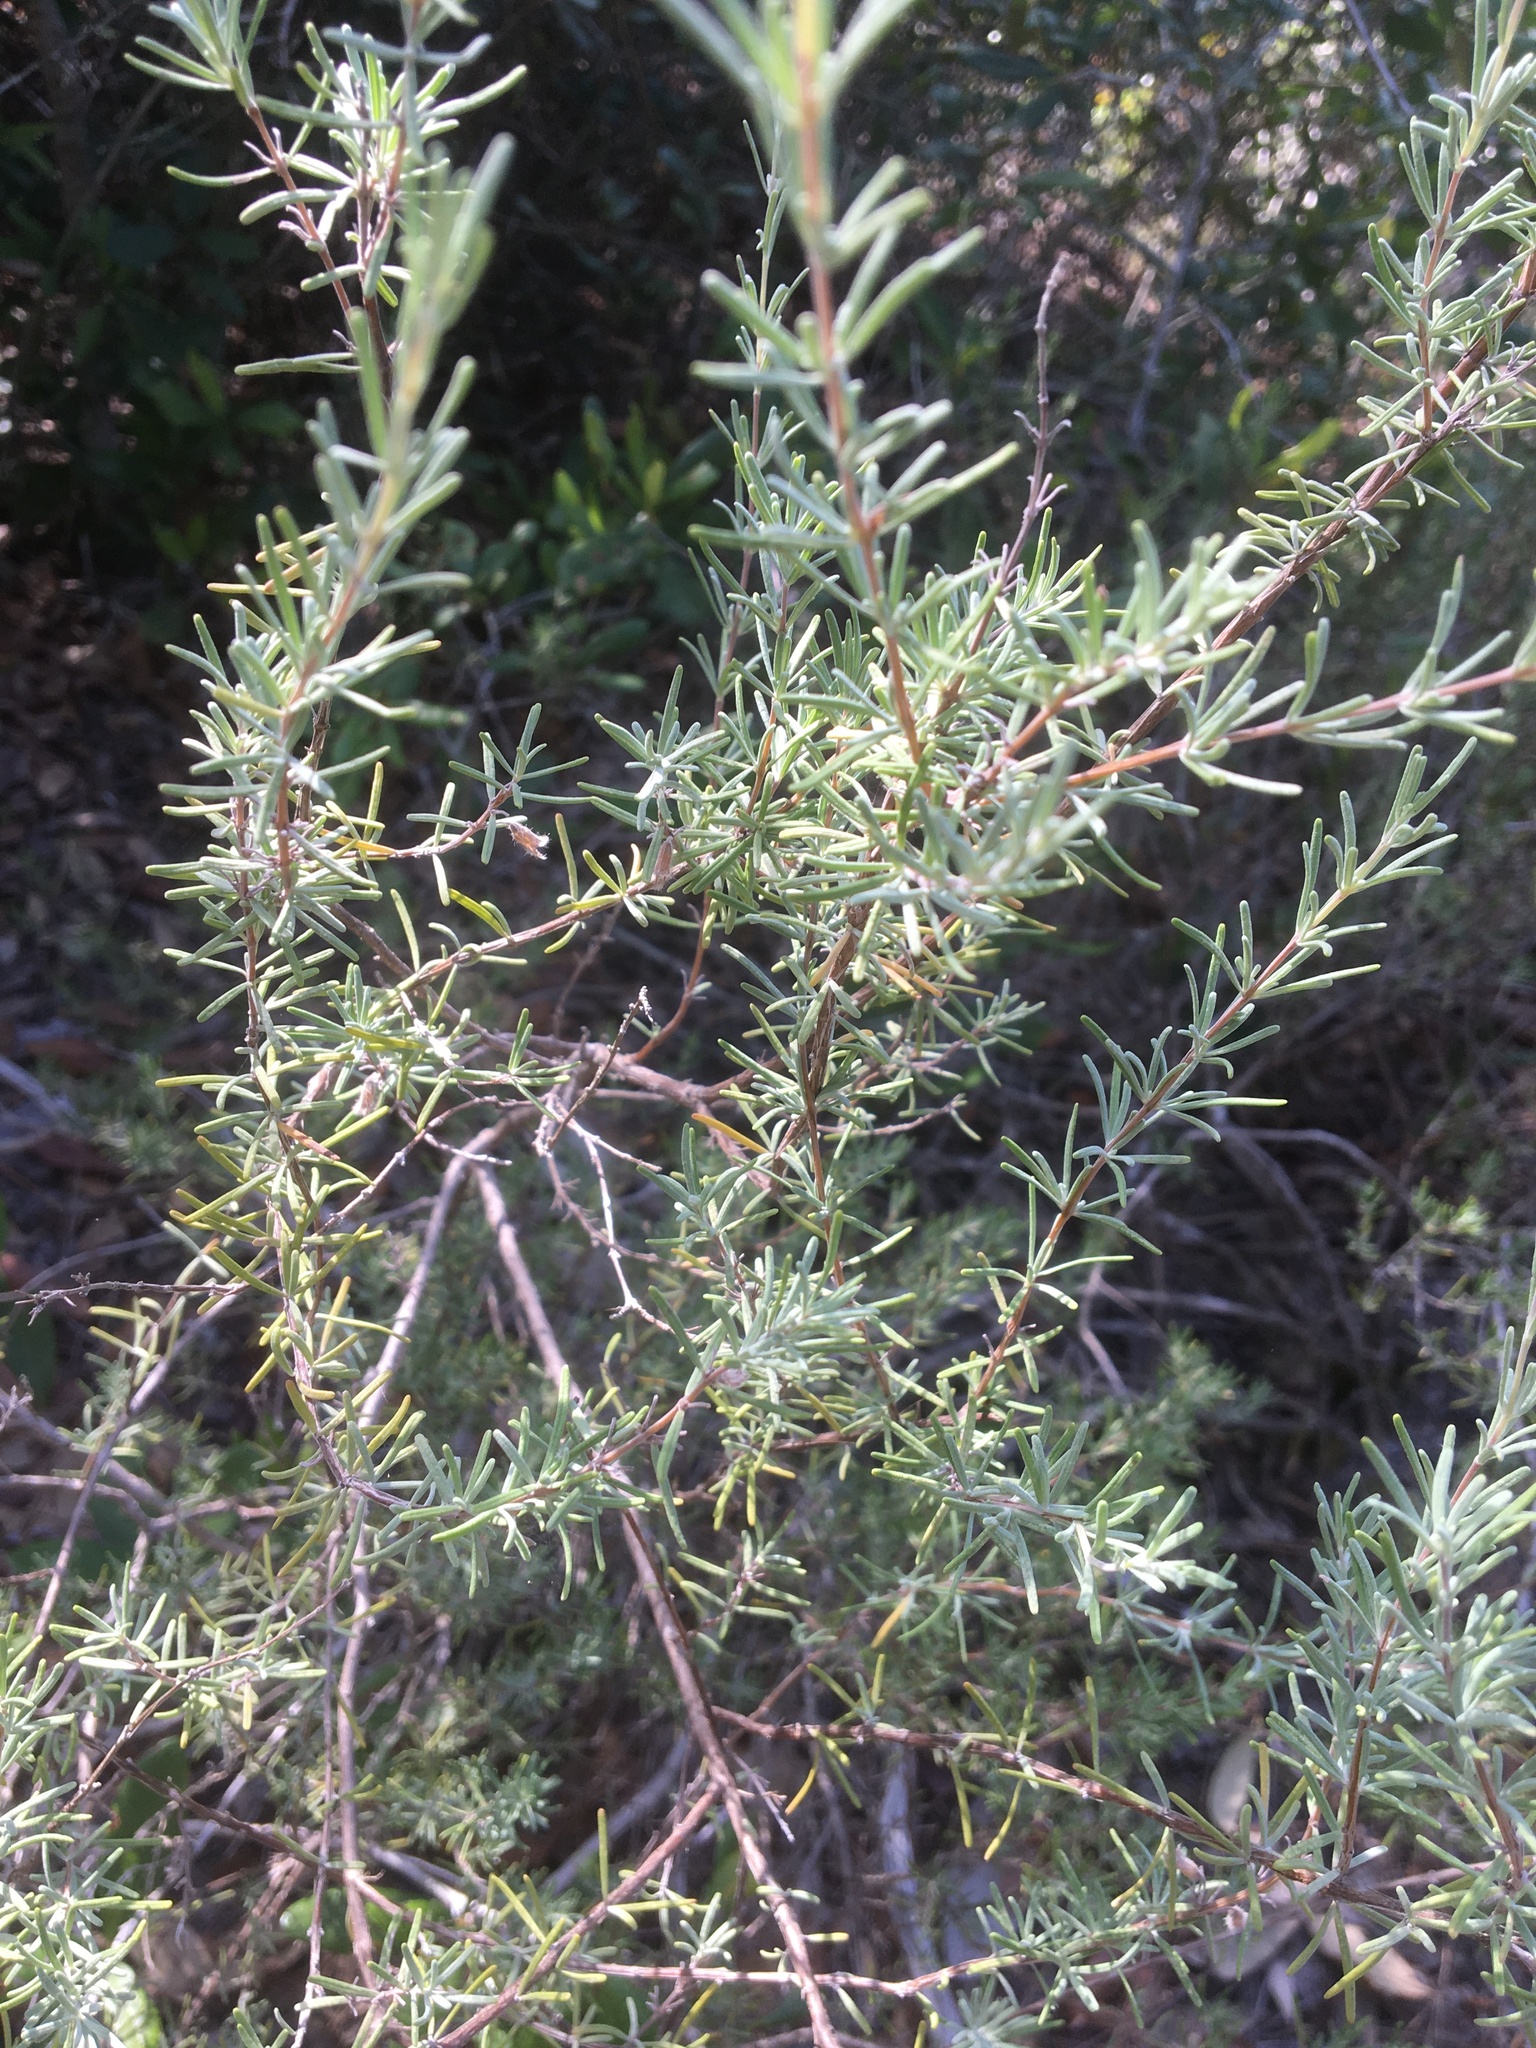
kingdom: Plantae
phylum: Tracheophyta
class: Magnoliopsida
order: Lamiales
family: Lamiaceae
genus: Conradina
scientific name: Conradina canescens
